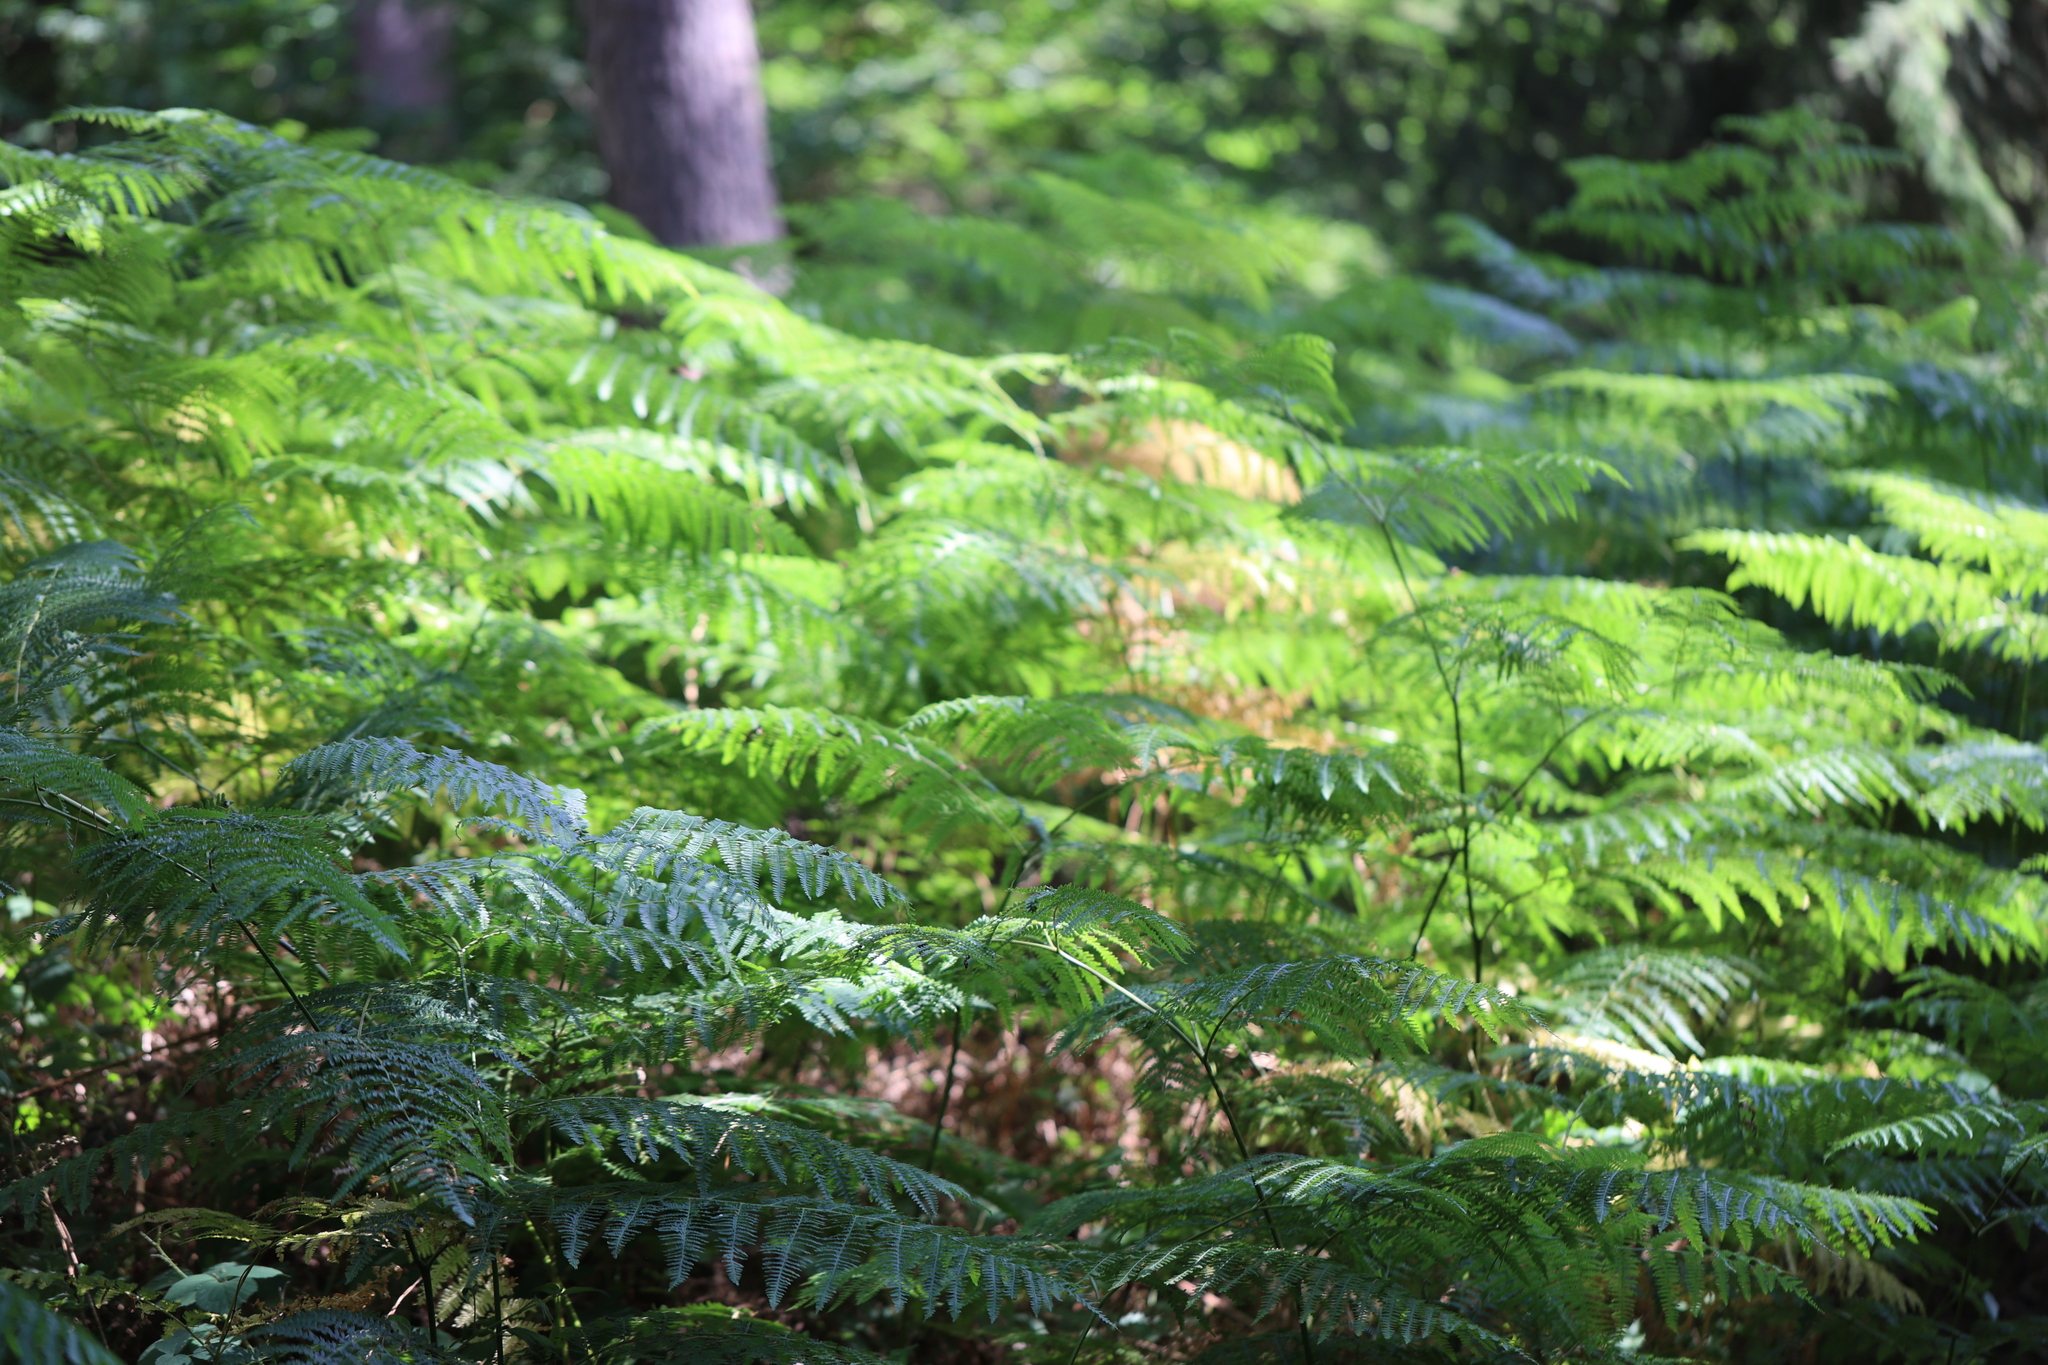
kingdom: Plantae
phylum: Tracheophyta
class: Polypodiopsida
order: Polypodiales
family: Dennstaedtiaceae
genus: Pteridium
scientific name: Pteridium aquilinum
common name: Bracken
